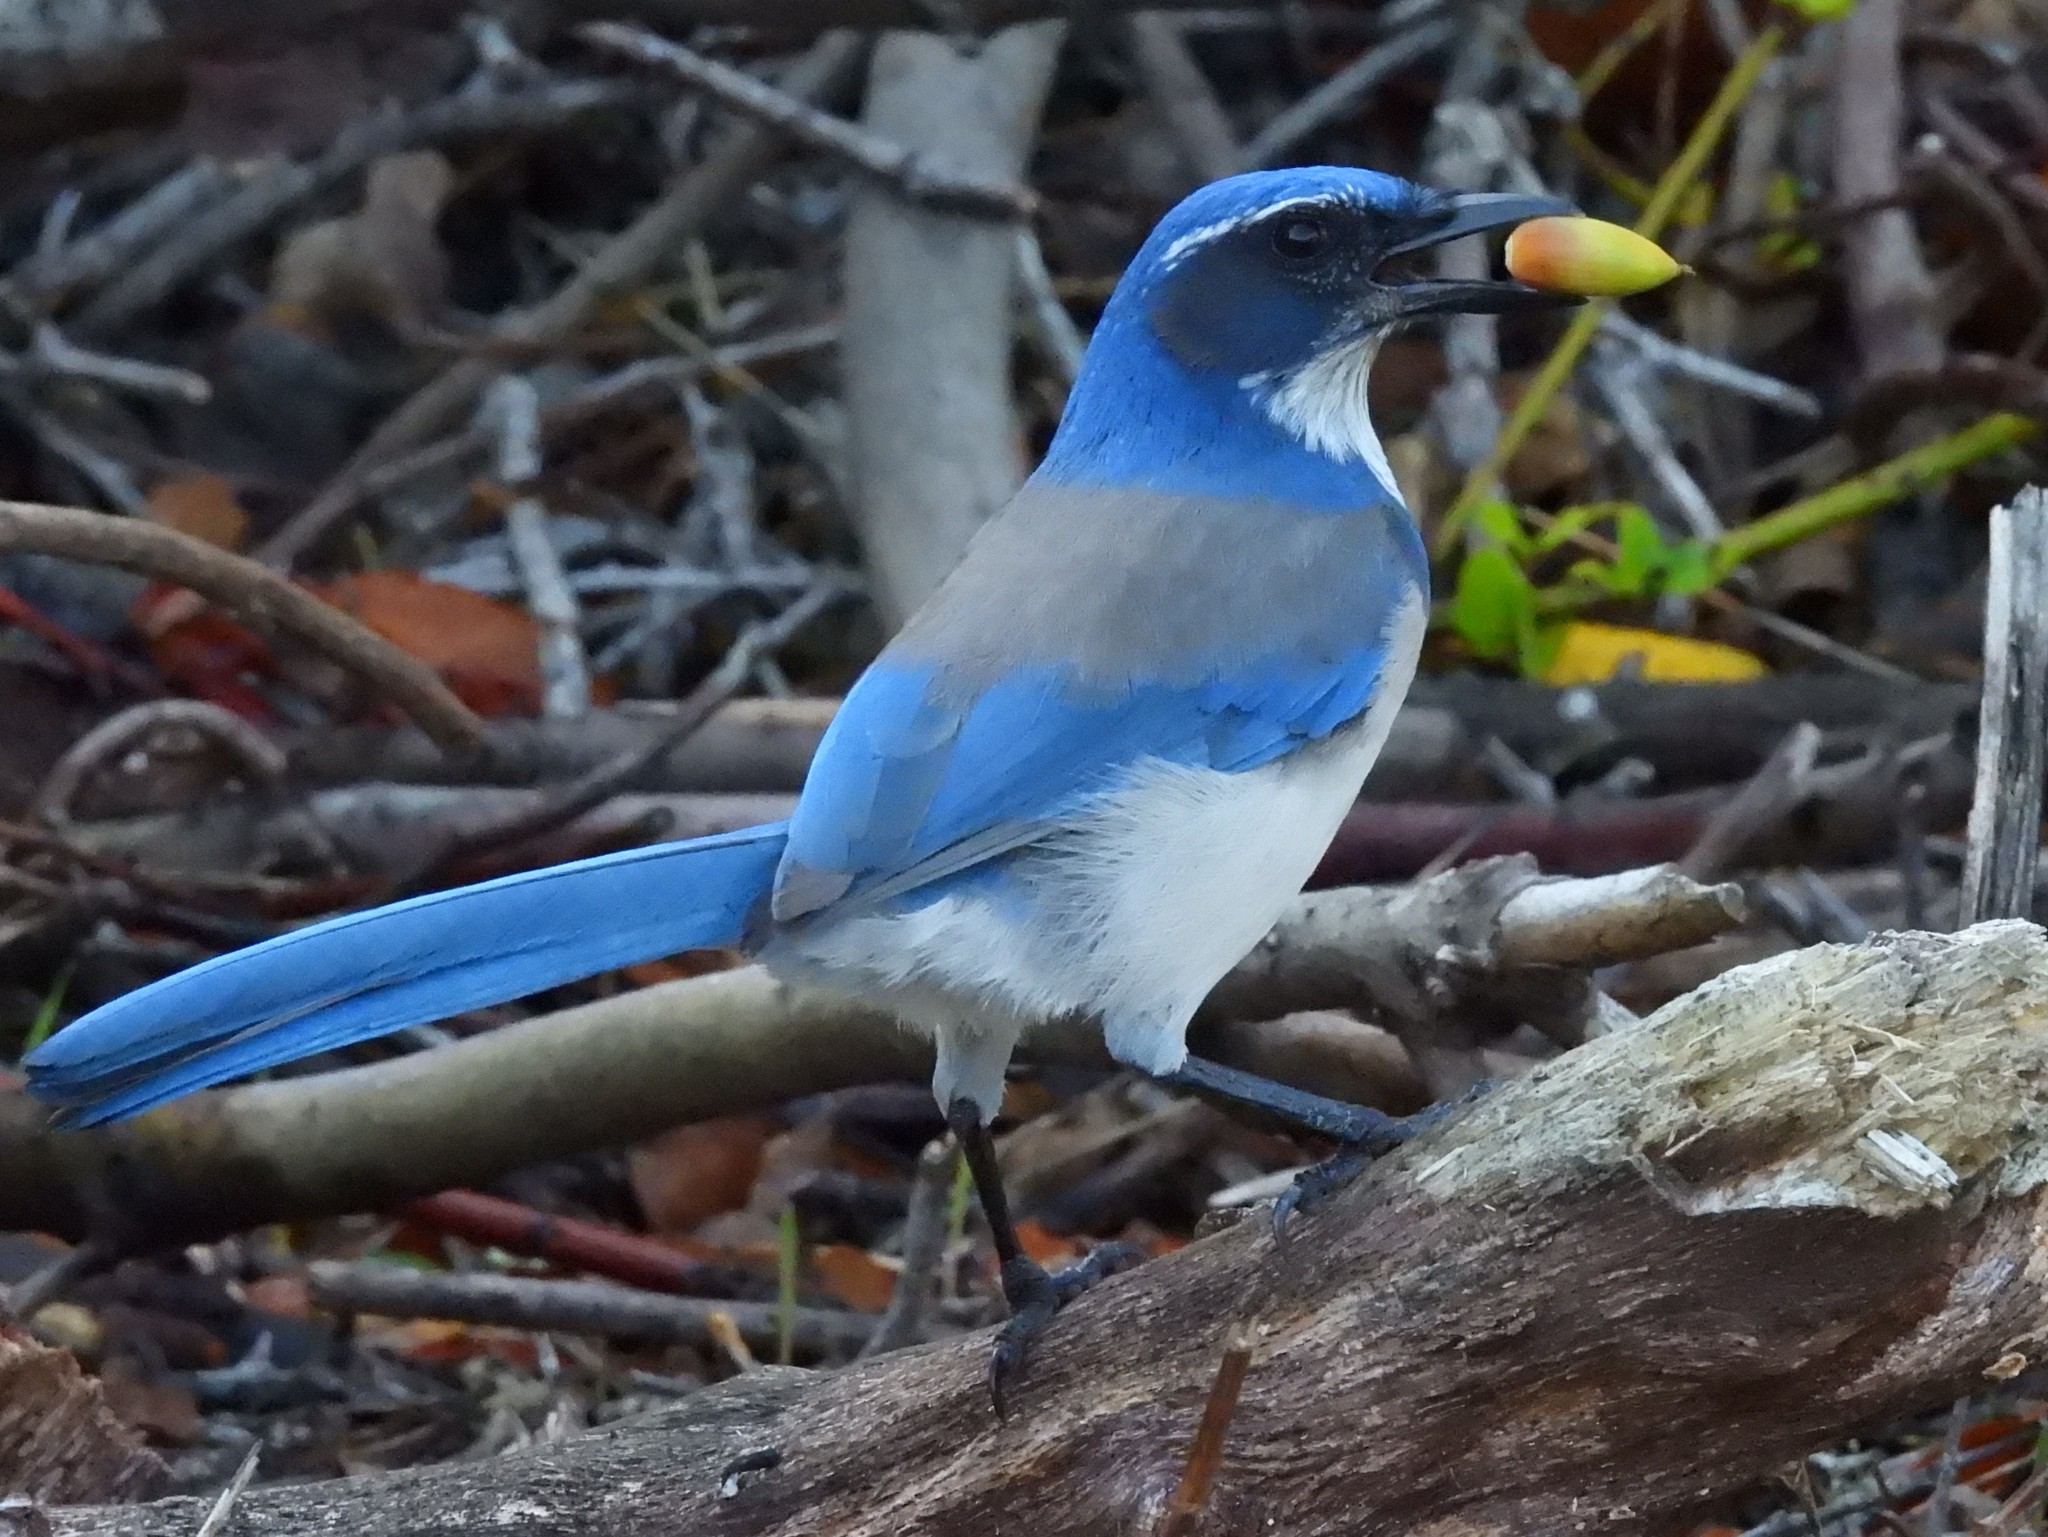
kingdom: Animalia
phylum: Chordata
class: Aves
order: Passeriformes
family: Corvidae
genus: Aphelocoma
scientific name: Aphelocoma californica
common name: California scrub-jay
